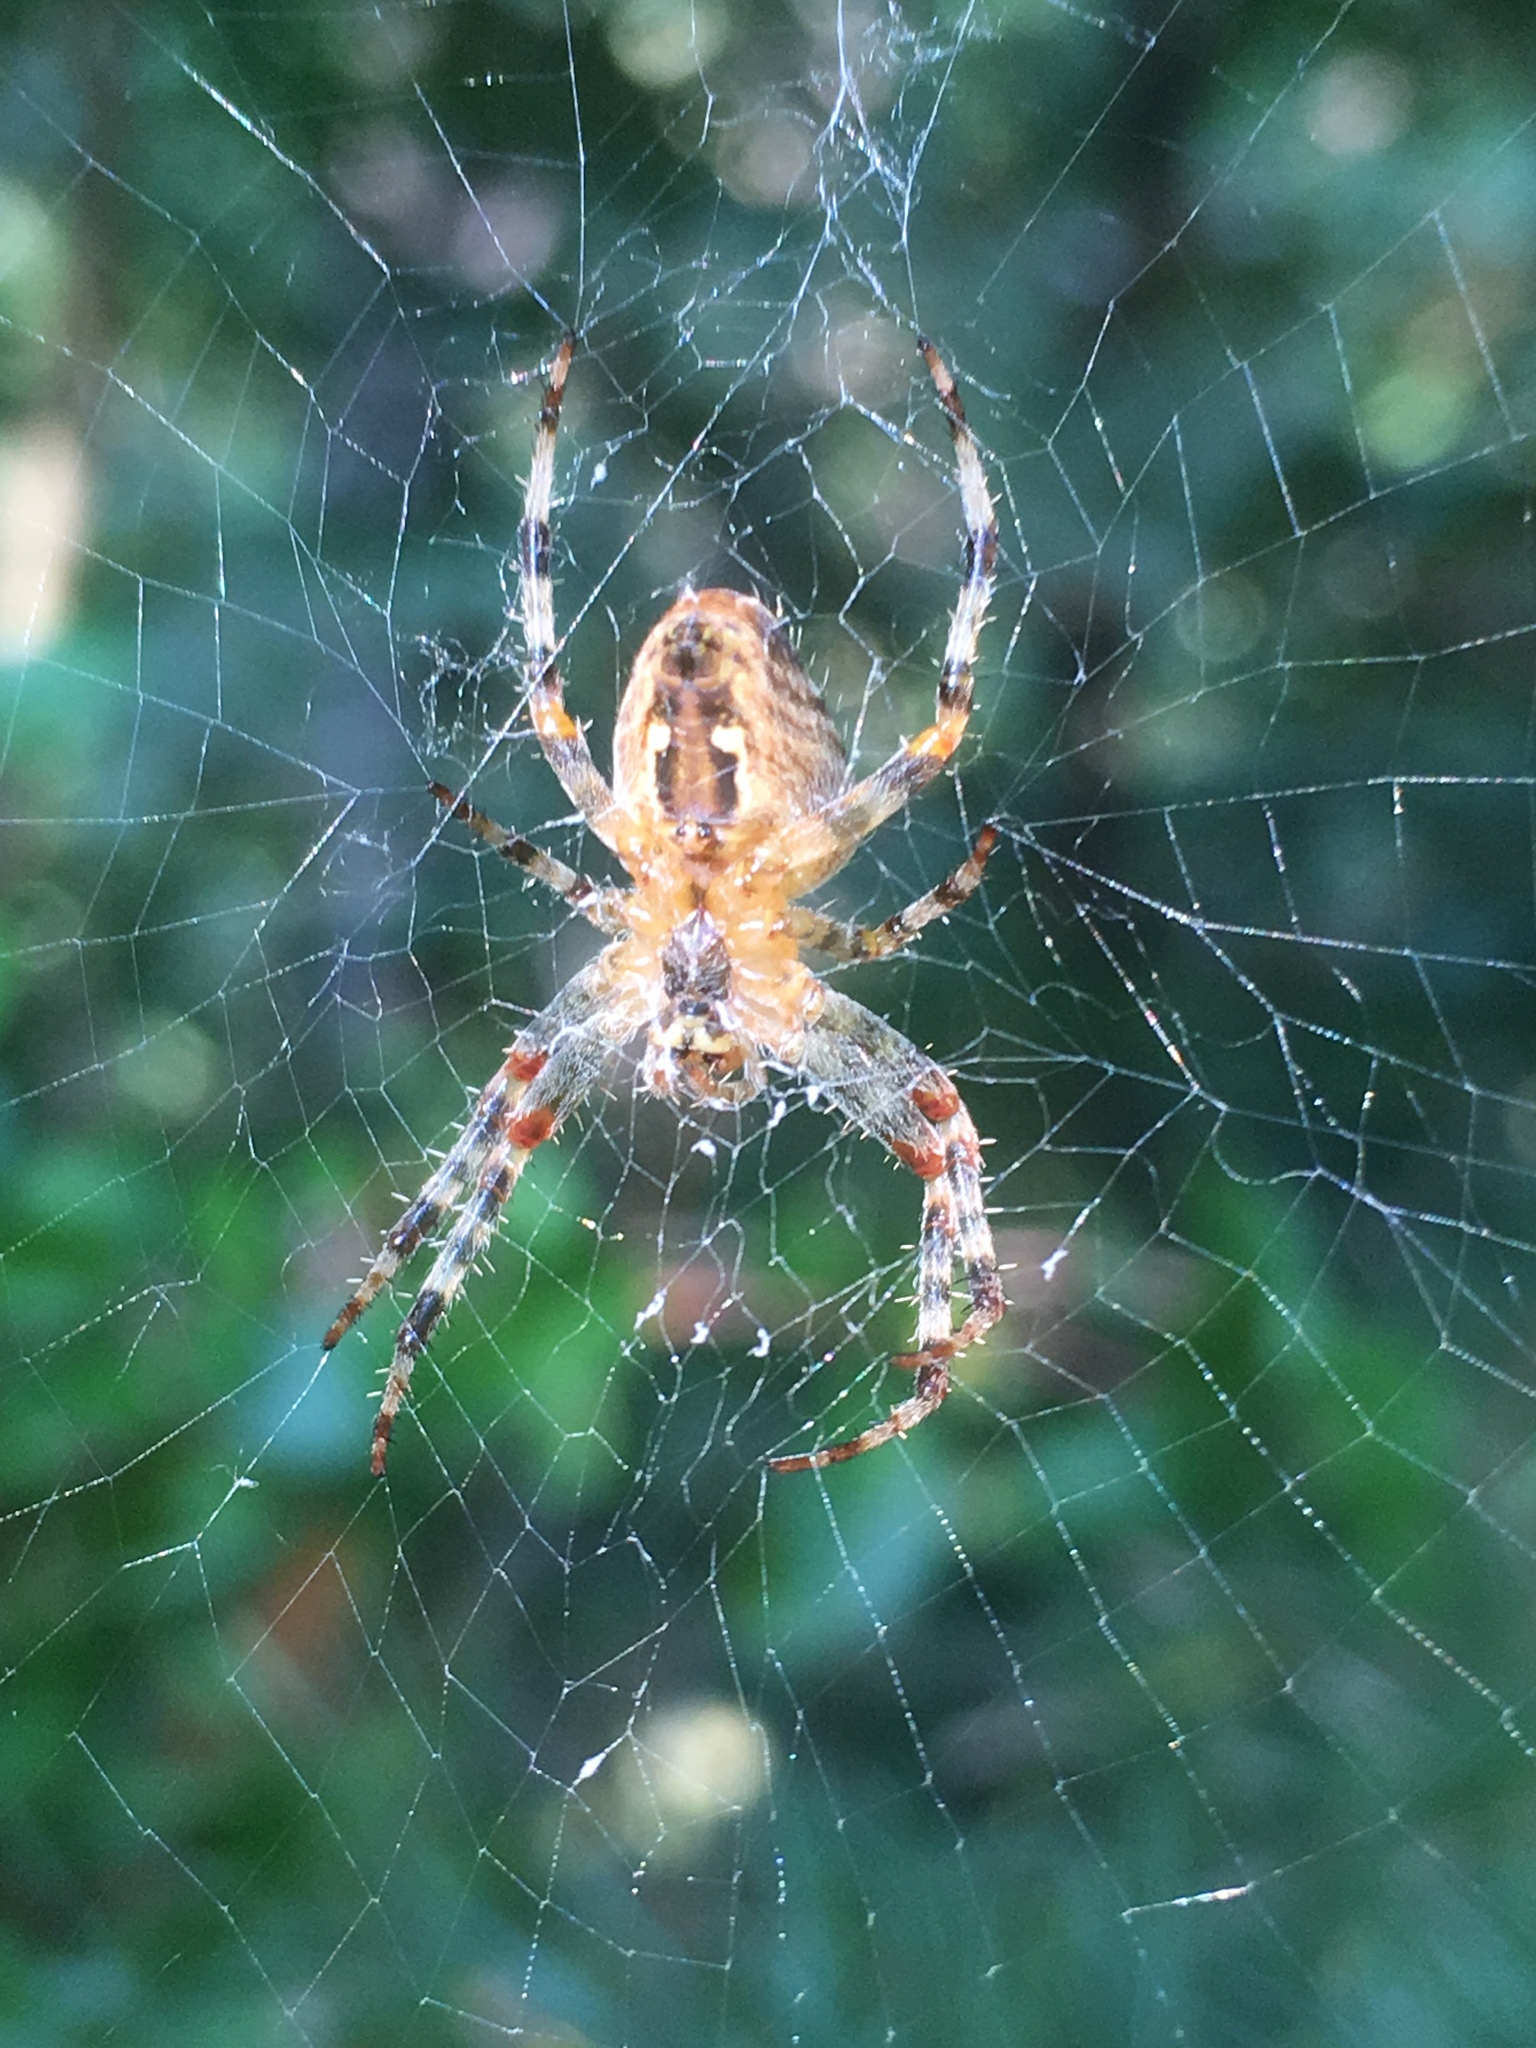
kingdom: Animalia
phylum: Arthropoda
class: Arachnida
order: Araneae
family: Araneidae
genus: Araneus
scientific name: Araneus diadematus
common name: Cross orbweaver
